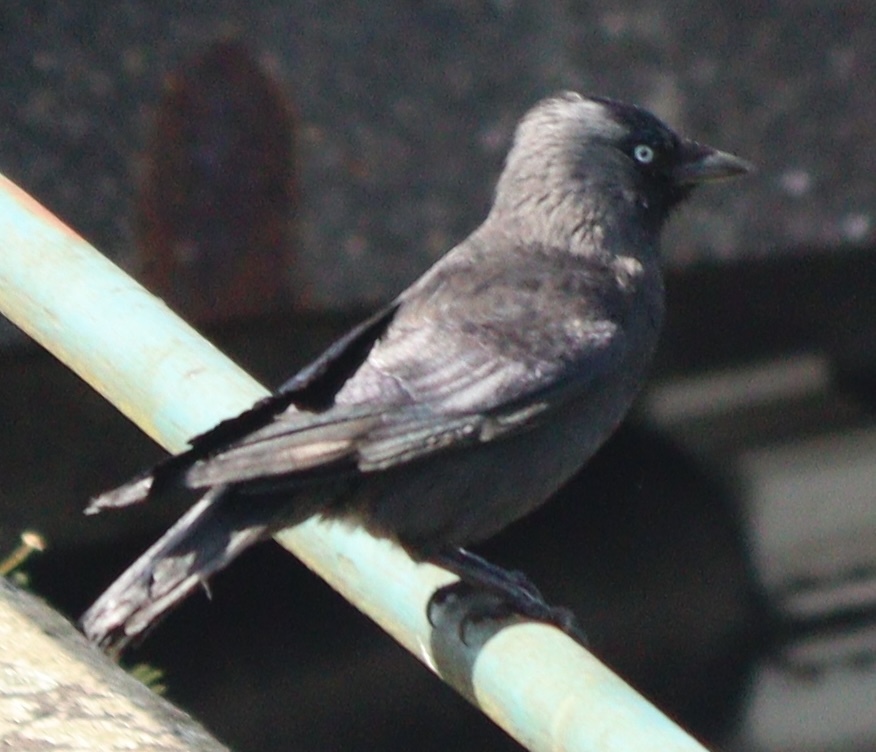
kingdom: Animalia
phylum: Chordata
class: Aves
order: Passeriformes
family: Corvidae
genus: Coloeus
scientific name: Coloeus monedula
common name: Western jackdaw
